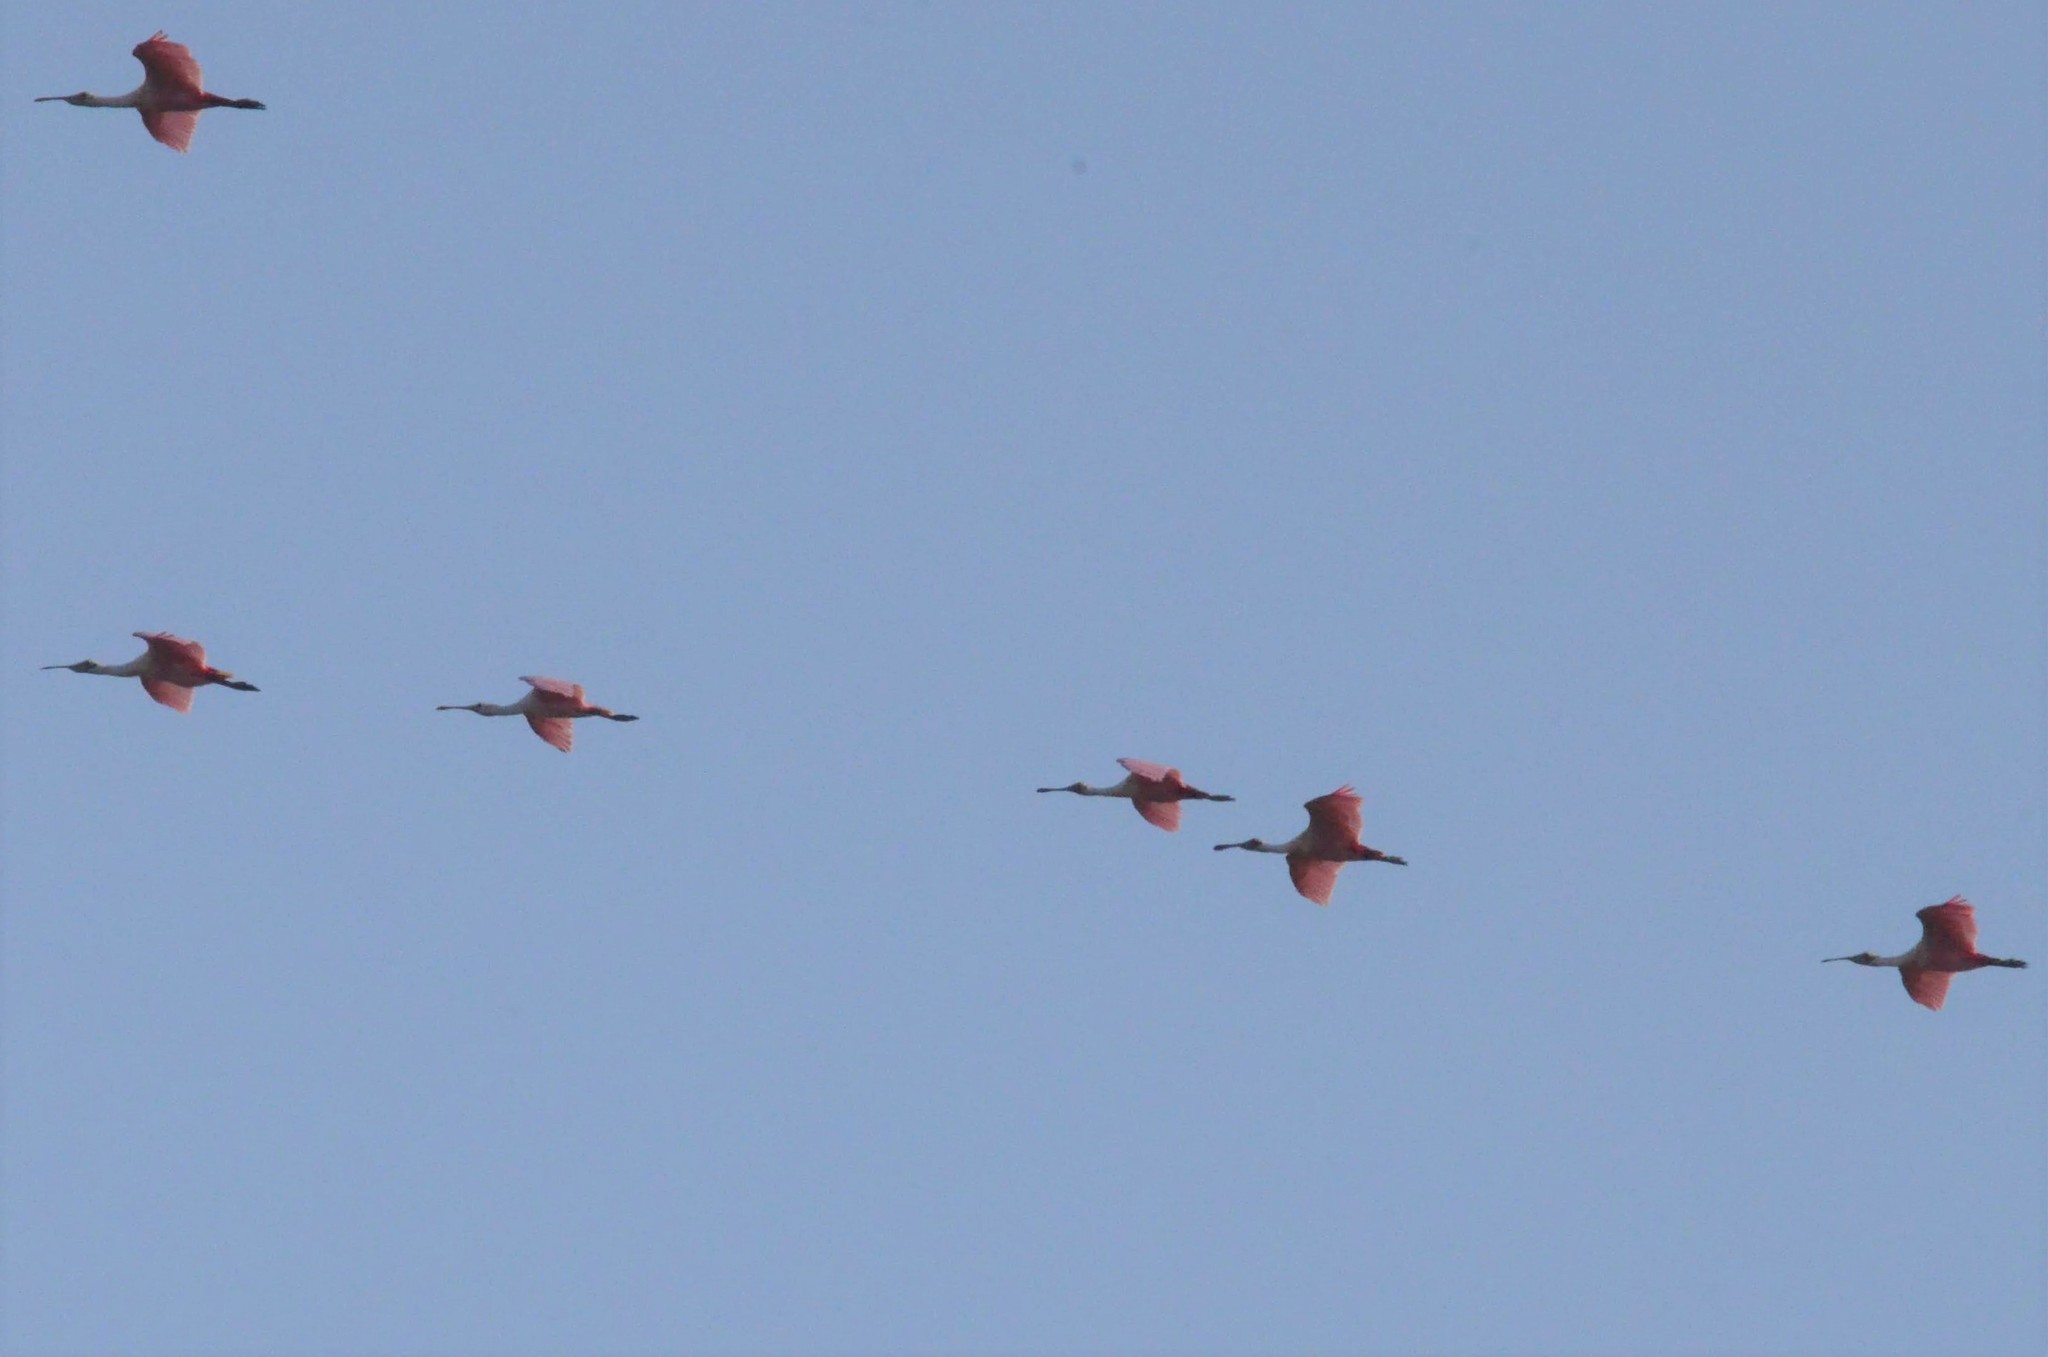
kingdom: Animalia
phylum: Chordata
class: Aves
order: Pelecaniformes
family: Threskiornithidae
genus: Platalea
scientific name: Platalea ajaja
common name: Roseate spoonbill
